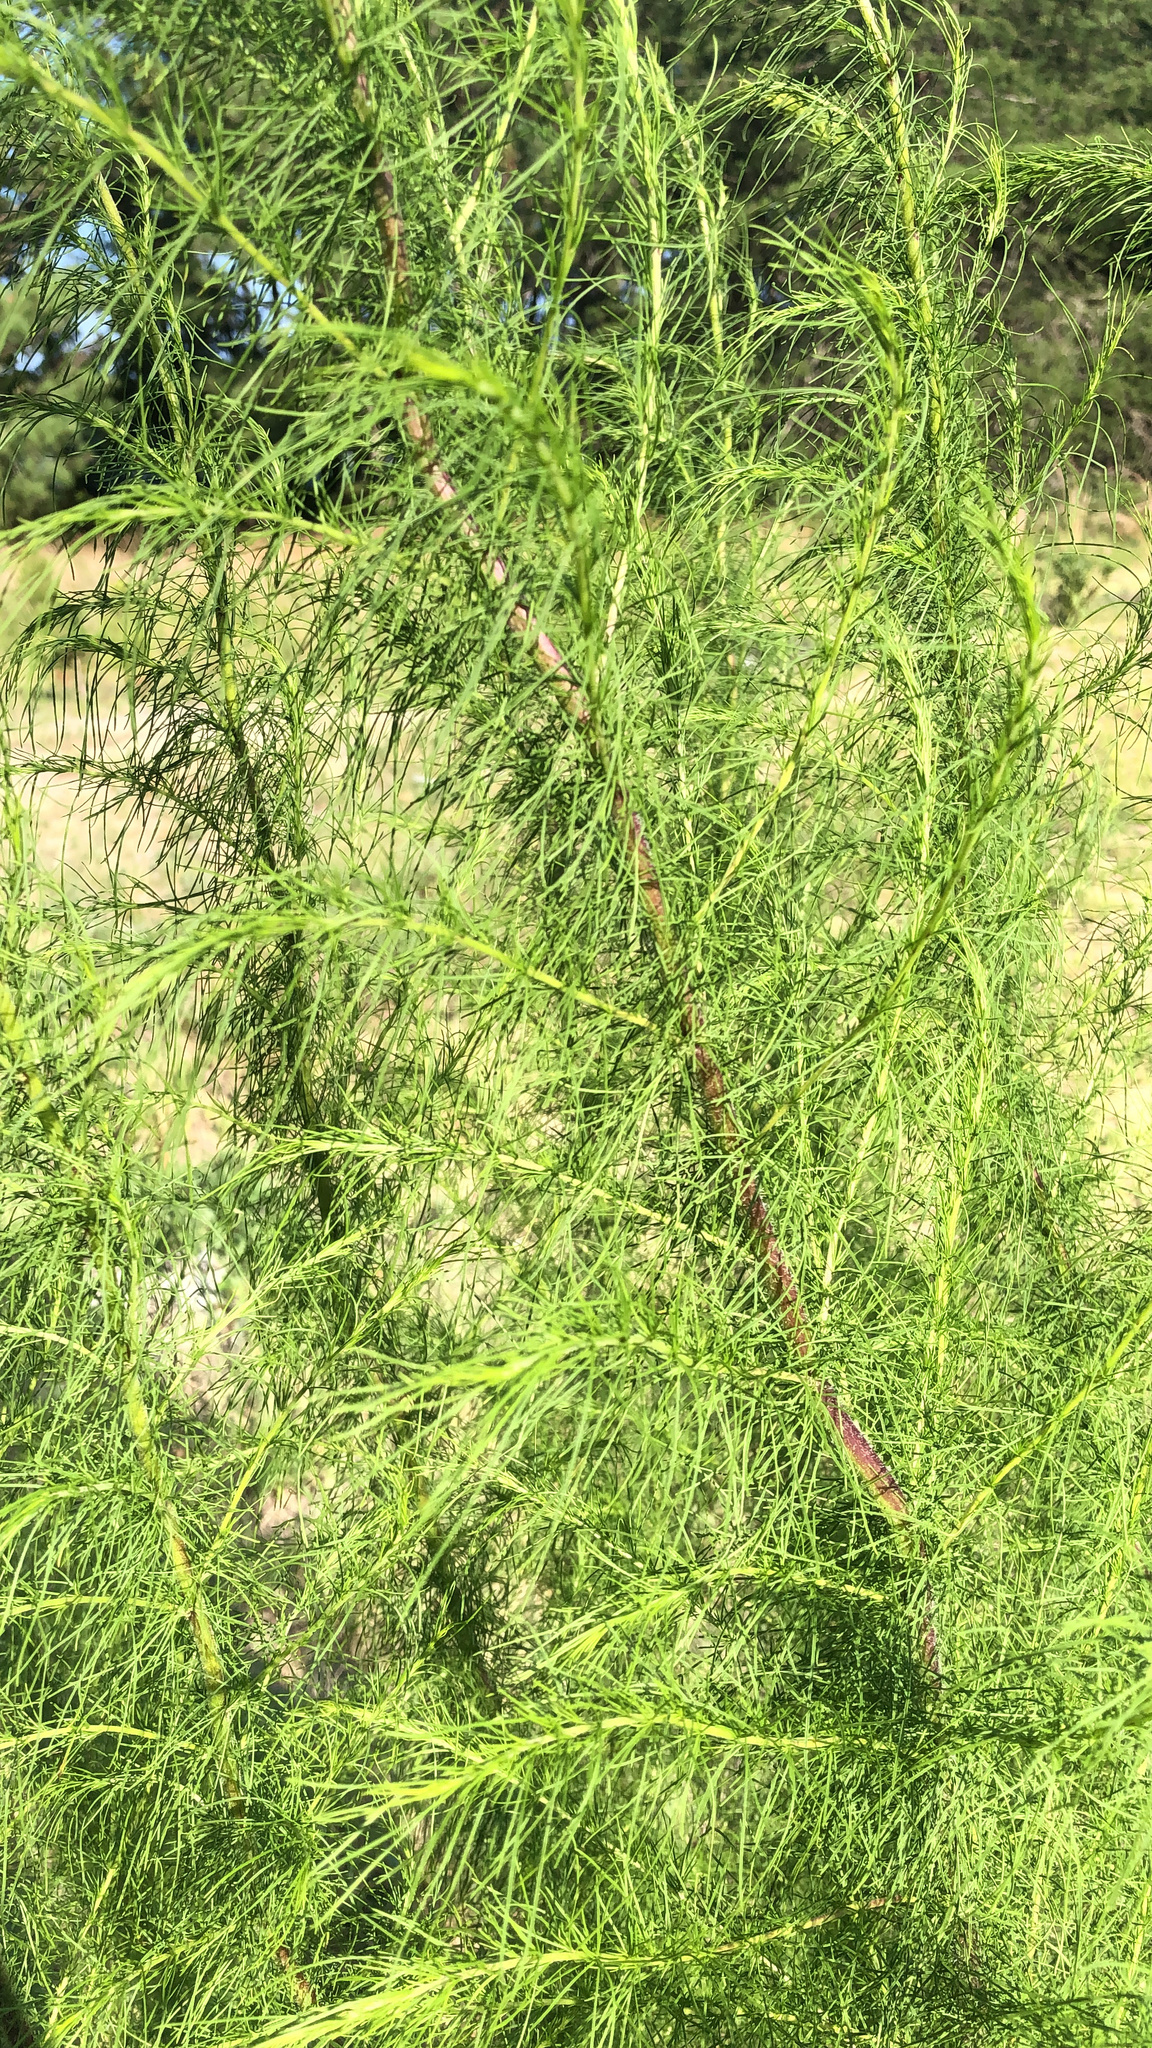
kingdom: Plantae
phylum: Tracheophyta
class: Magnoliopsida
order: Asterales
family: Asteraceae
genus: Eupatorium
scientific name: Eupatorium capillifolium
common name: Dog-fennel
